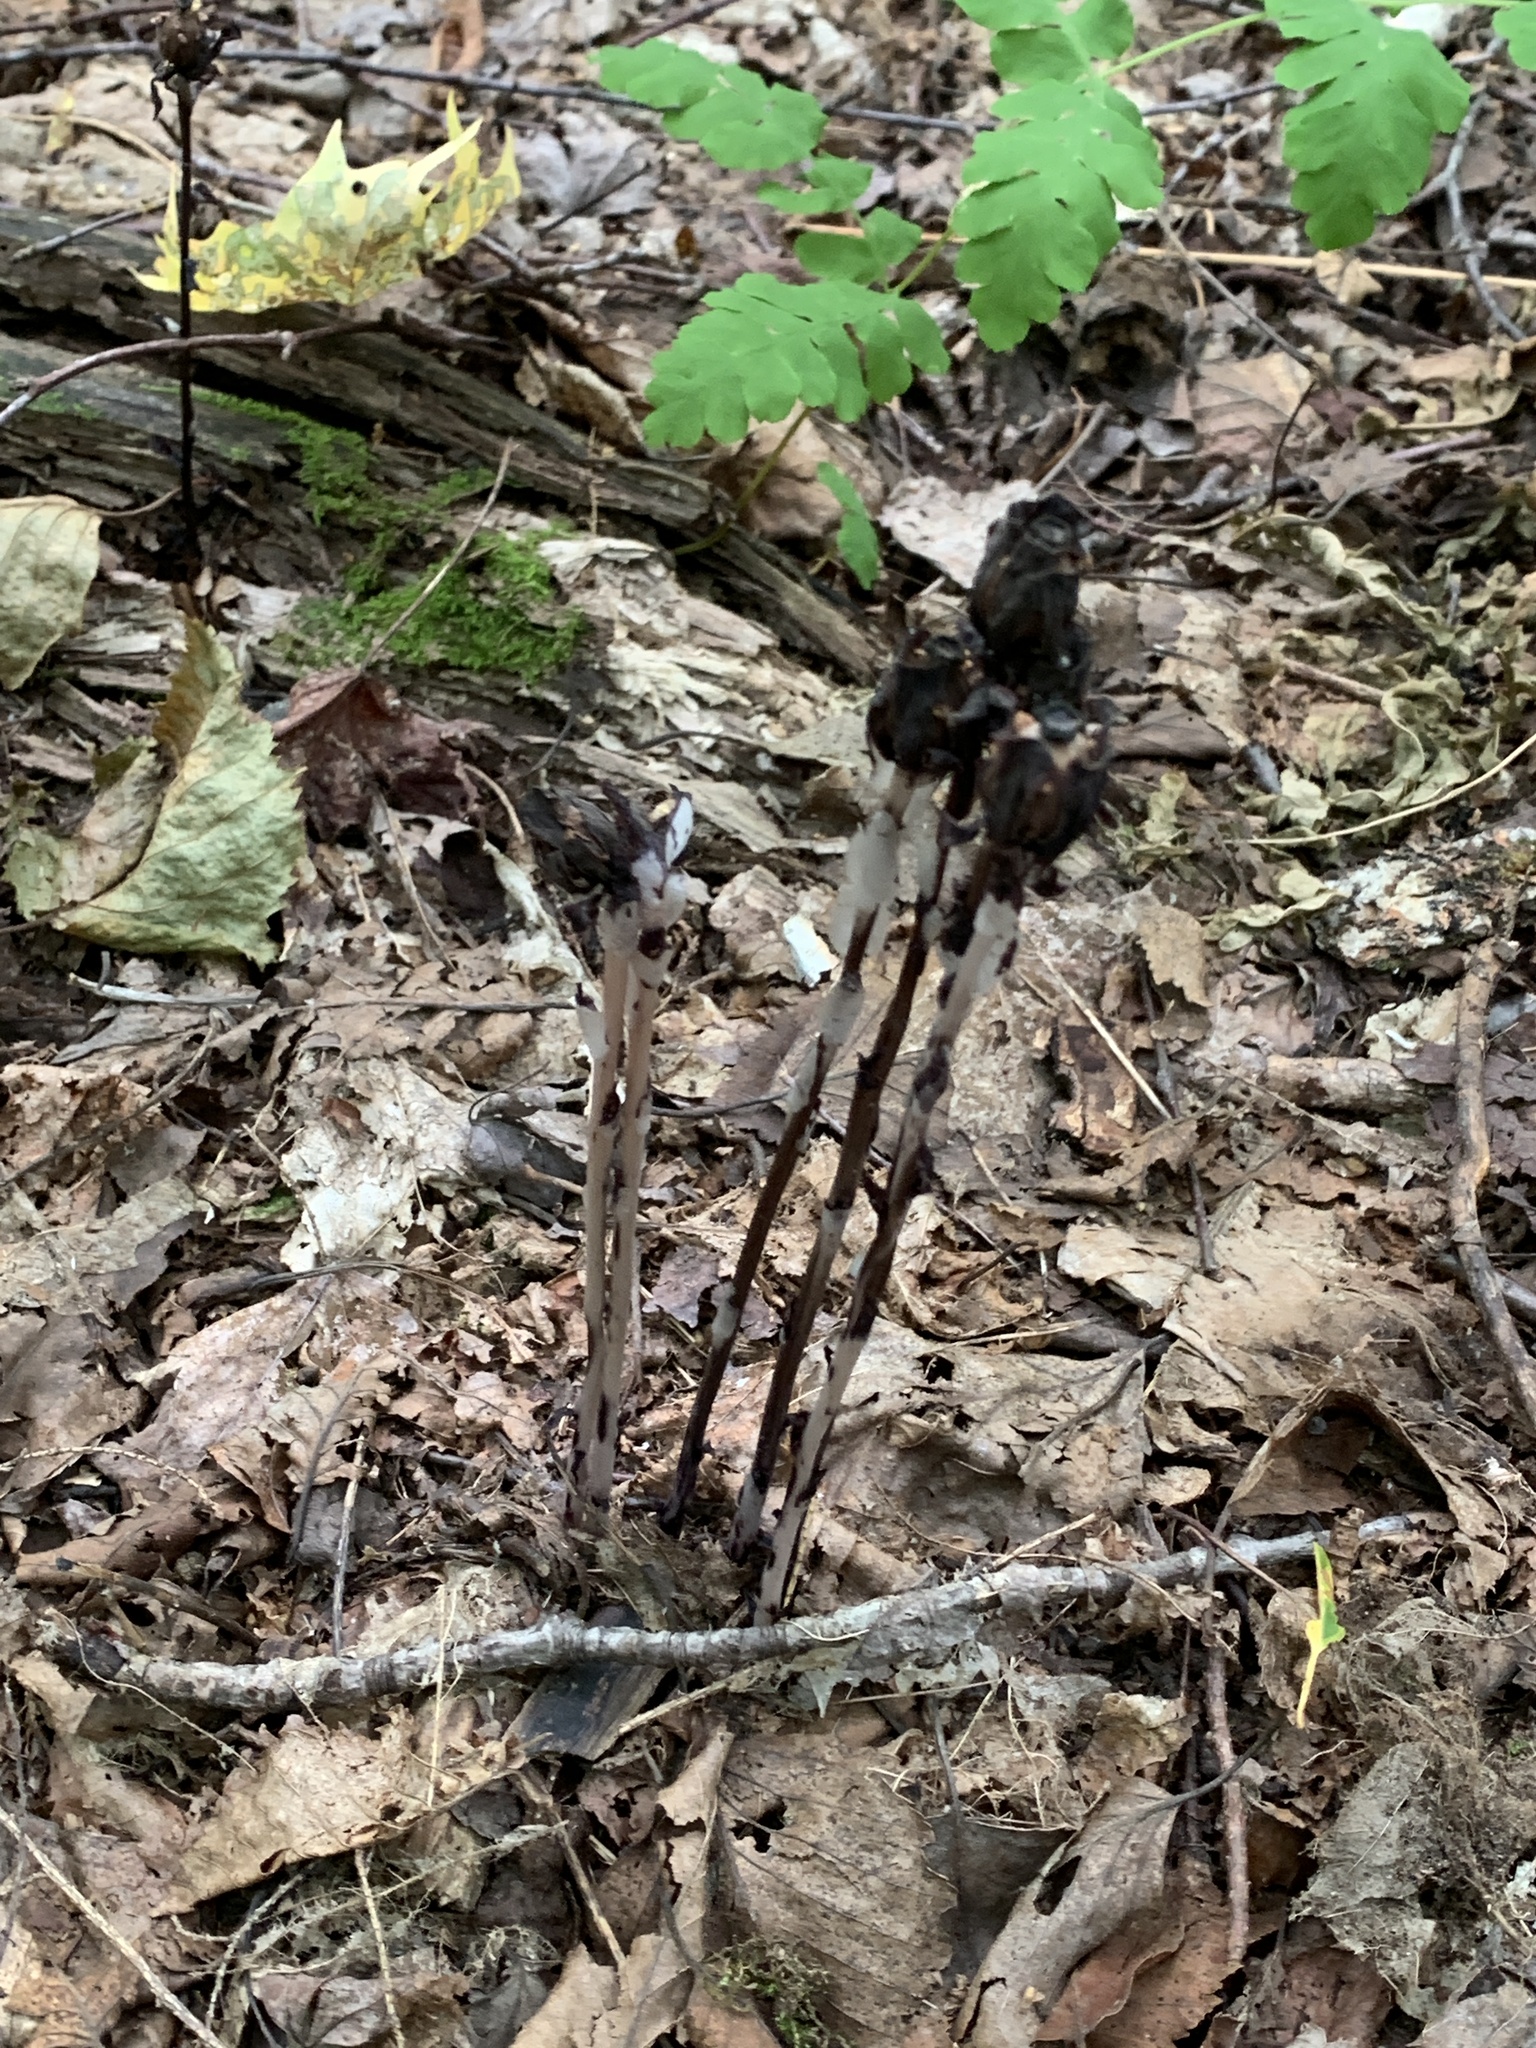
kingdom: Plantae
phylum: Tracheophyta
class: Magnoliopsida
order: Ericales
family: Ericaceae
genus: Monotropa
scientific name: Monotropa uniflora
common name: Convulsion root
